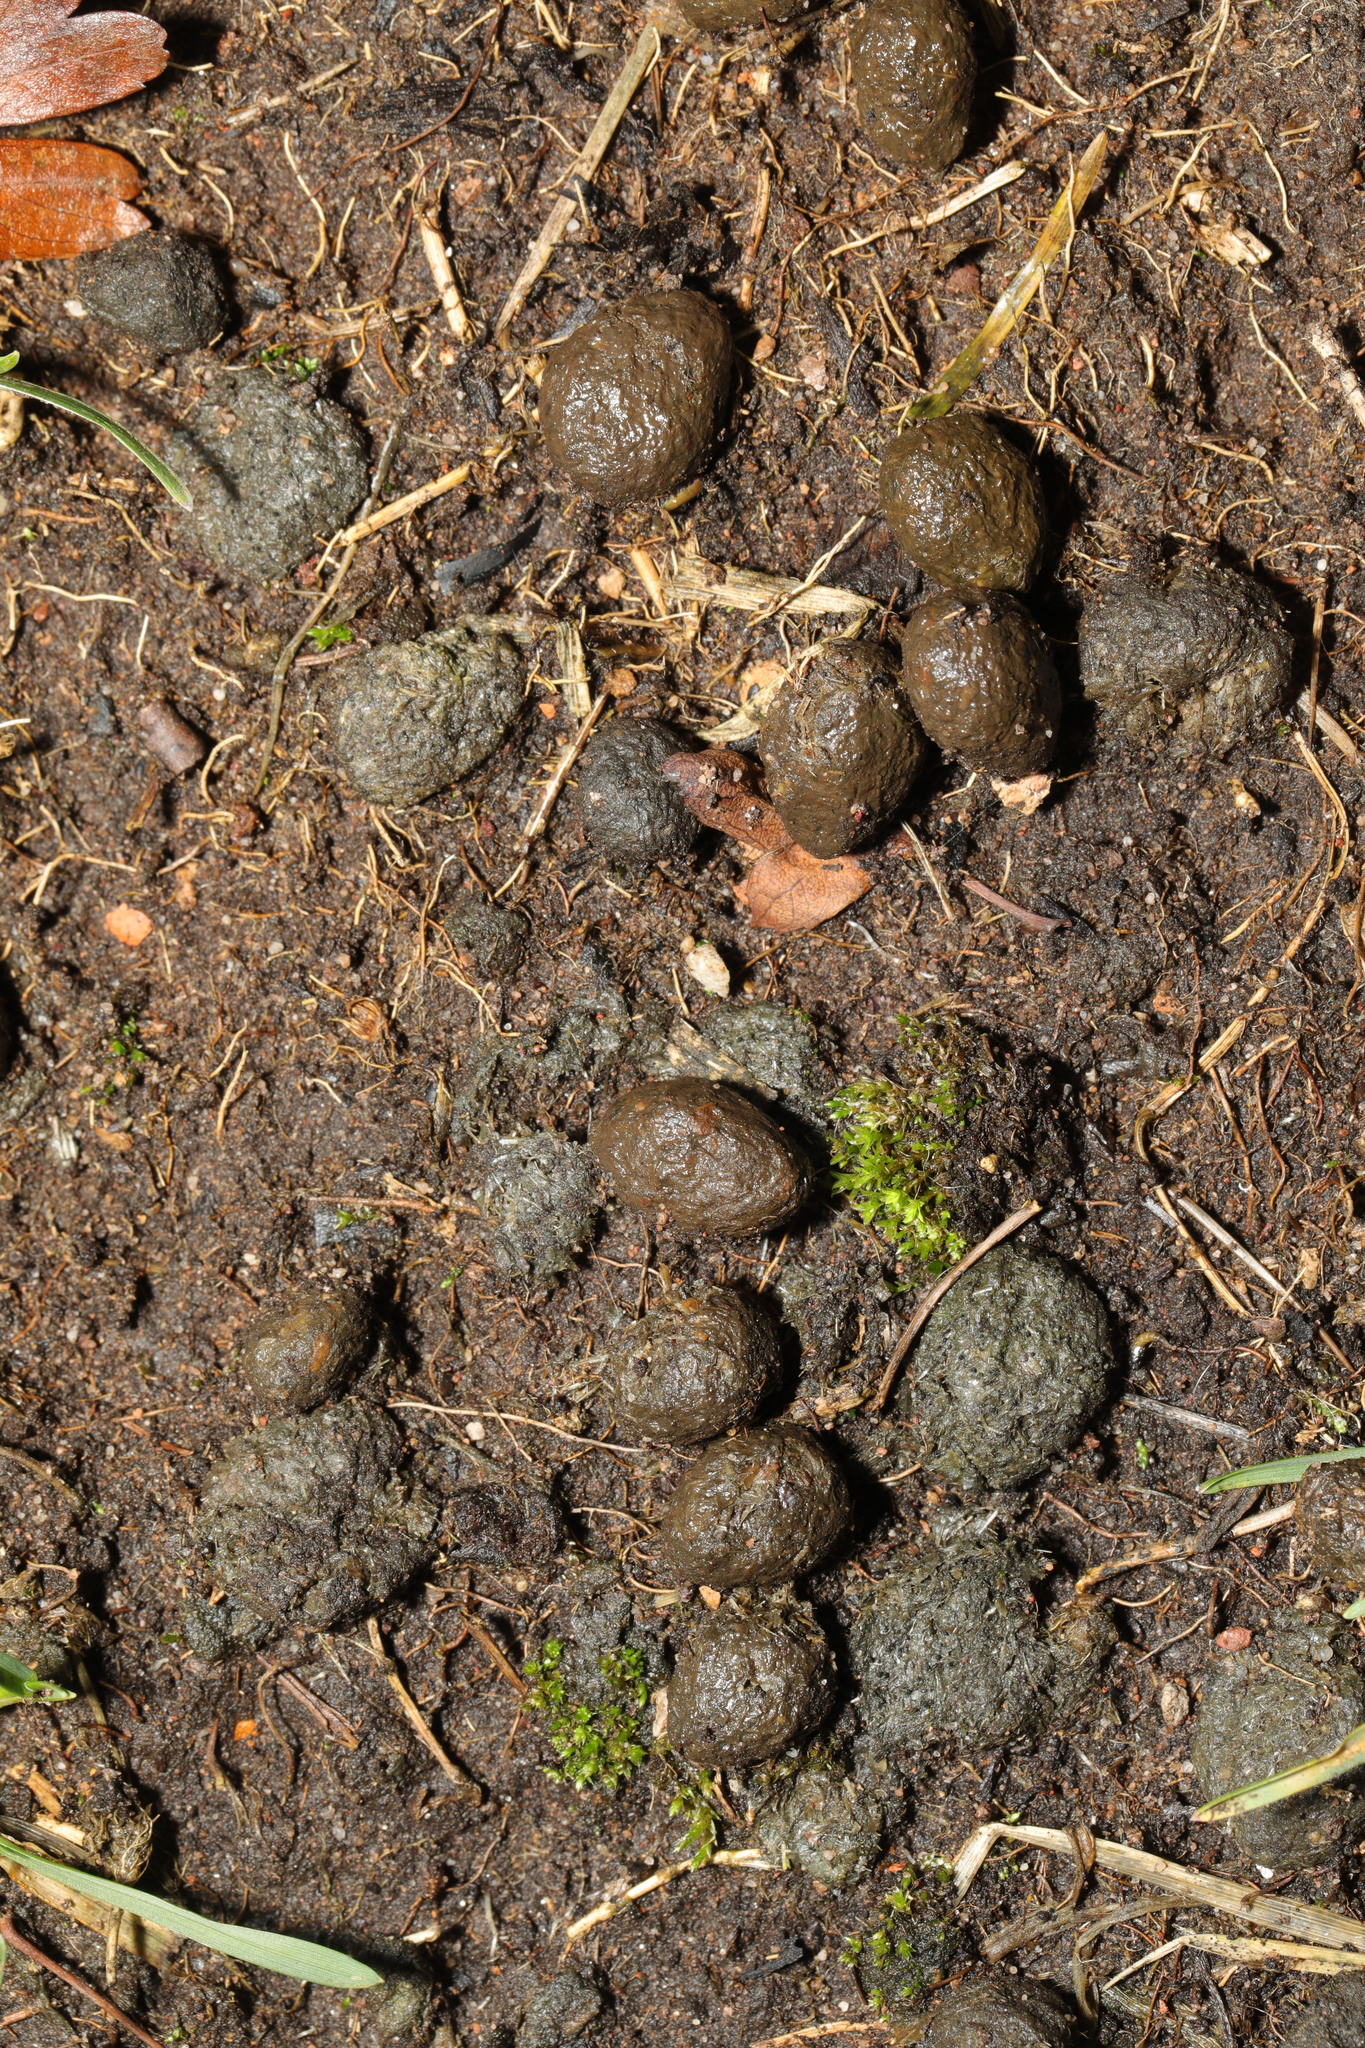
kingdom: Animalia
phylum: Chordata
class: Mammalia
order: Lagomorpha
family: Leporidae
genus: Oryctolagus
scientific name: Oryctolagus cuniculus
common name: European rabbit
